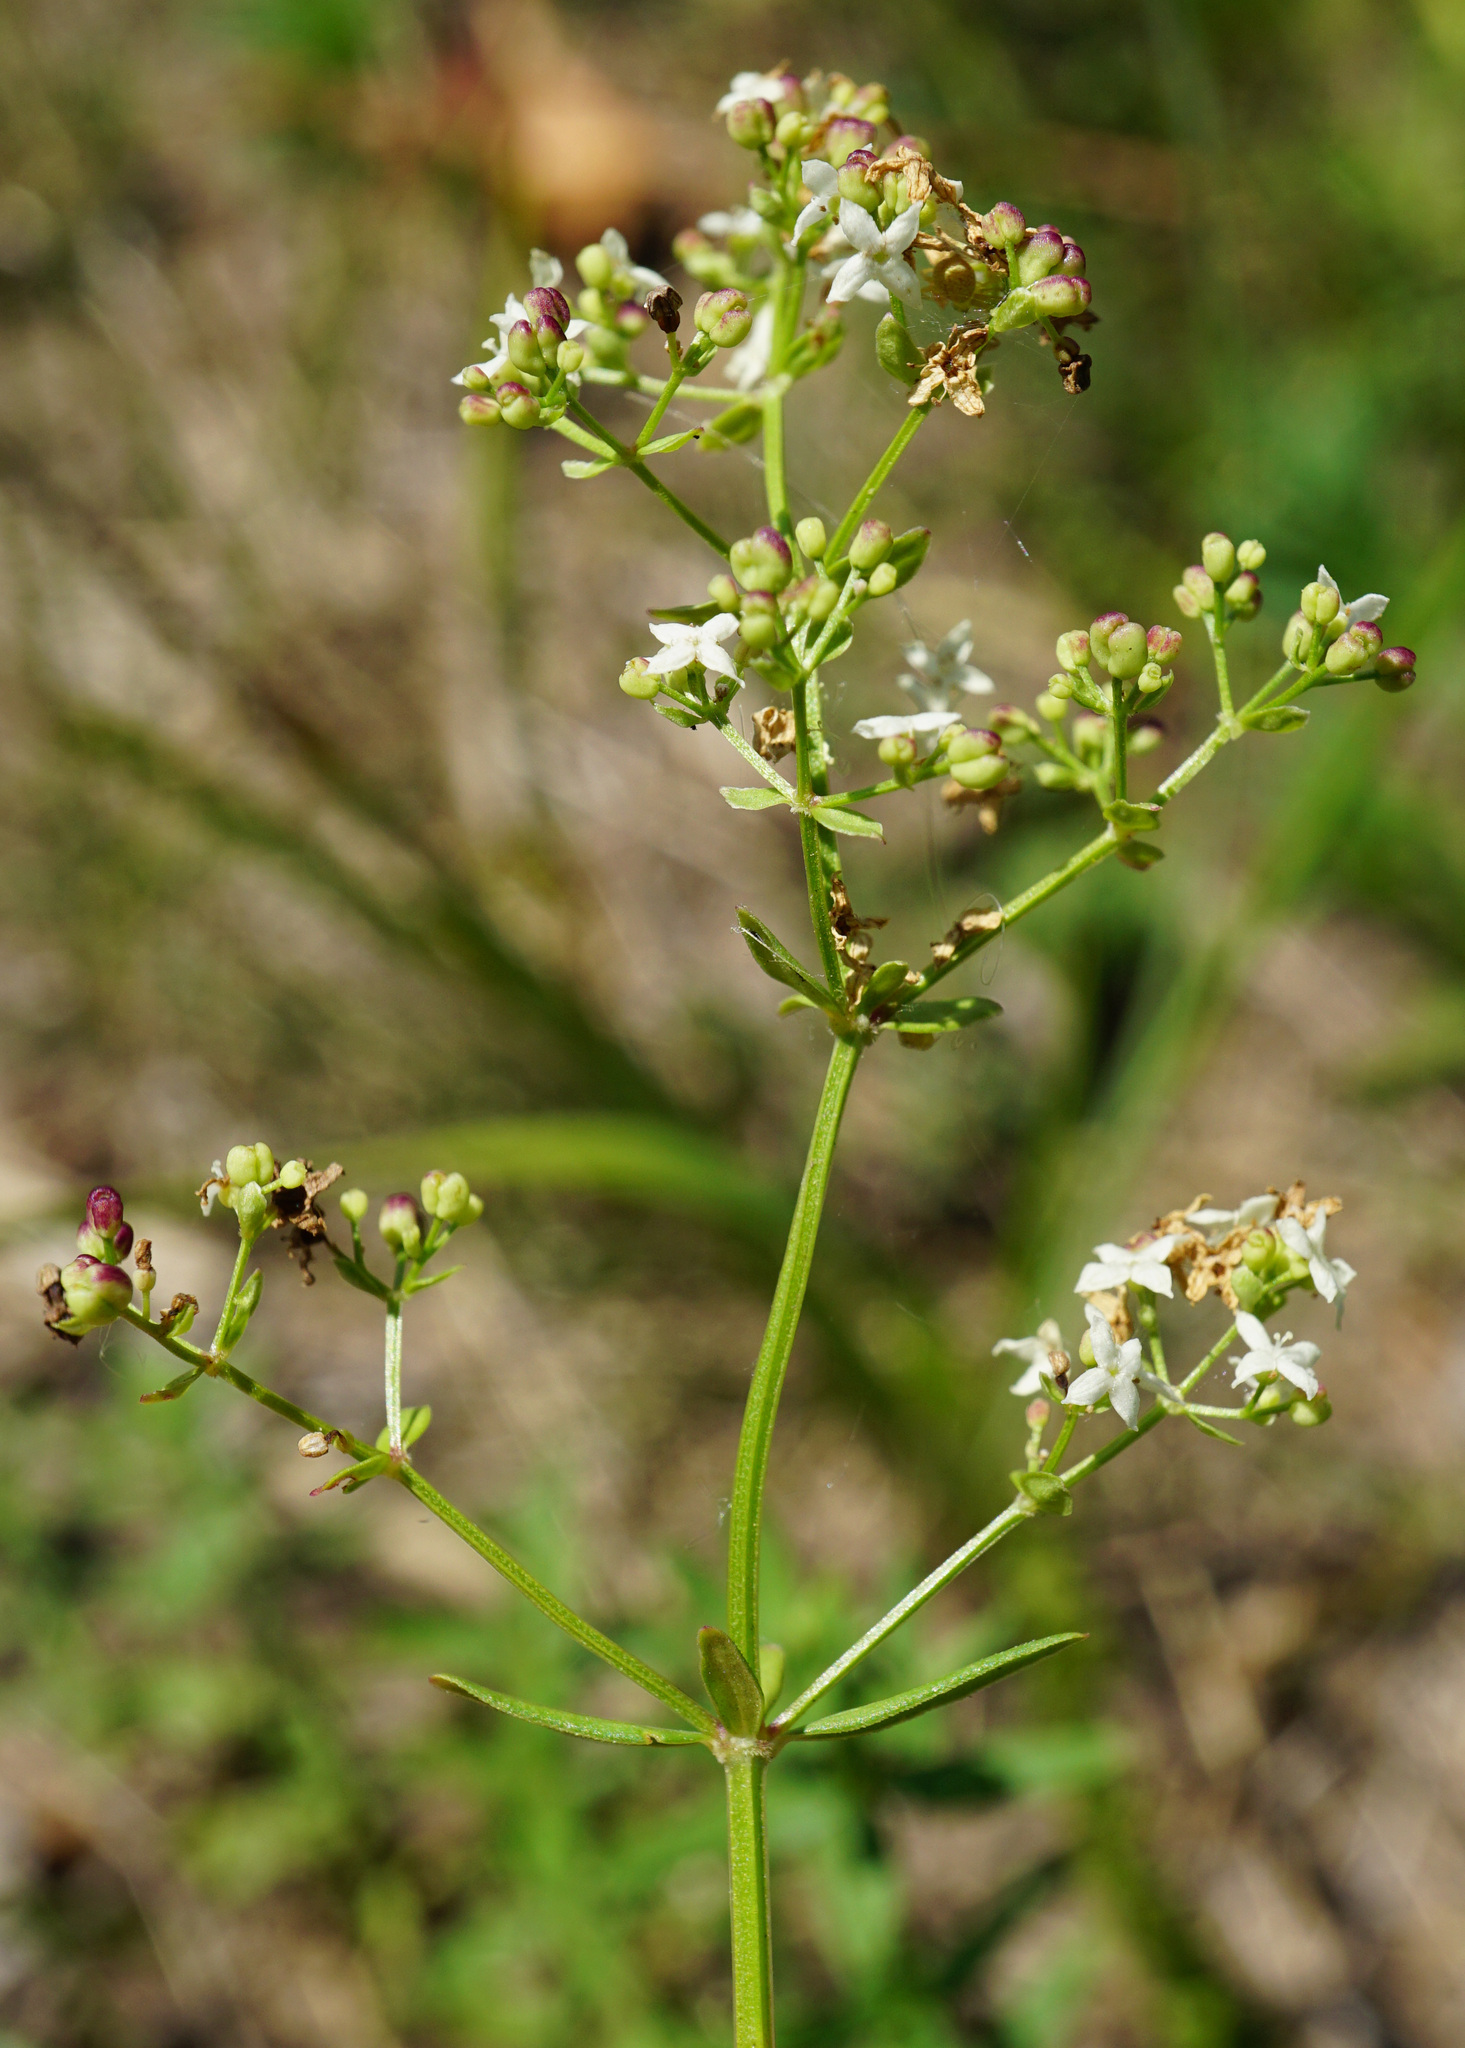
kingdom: Plantae
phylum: Tracheophyta
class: Magnoliopsida
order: Gentianales
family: Rubiaceae
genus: Galium
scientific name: Galium boreale
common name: Northern bedstraw
